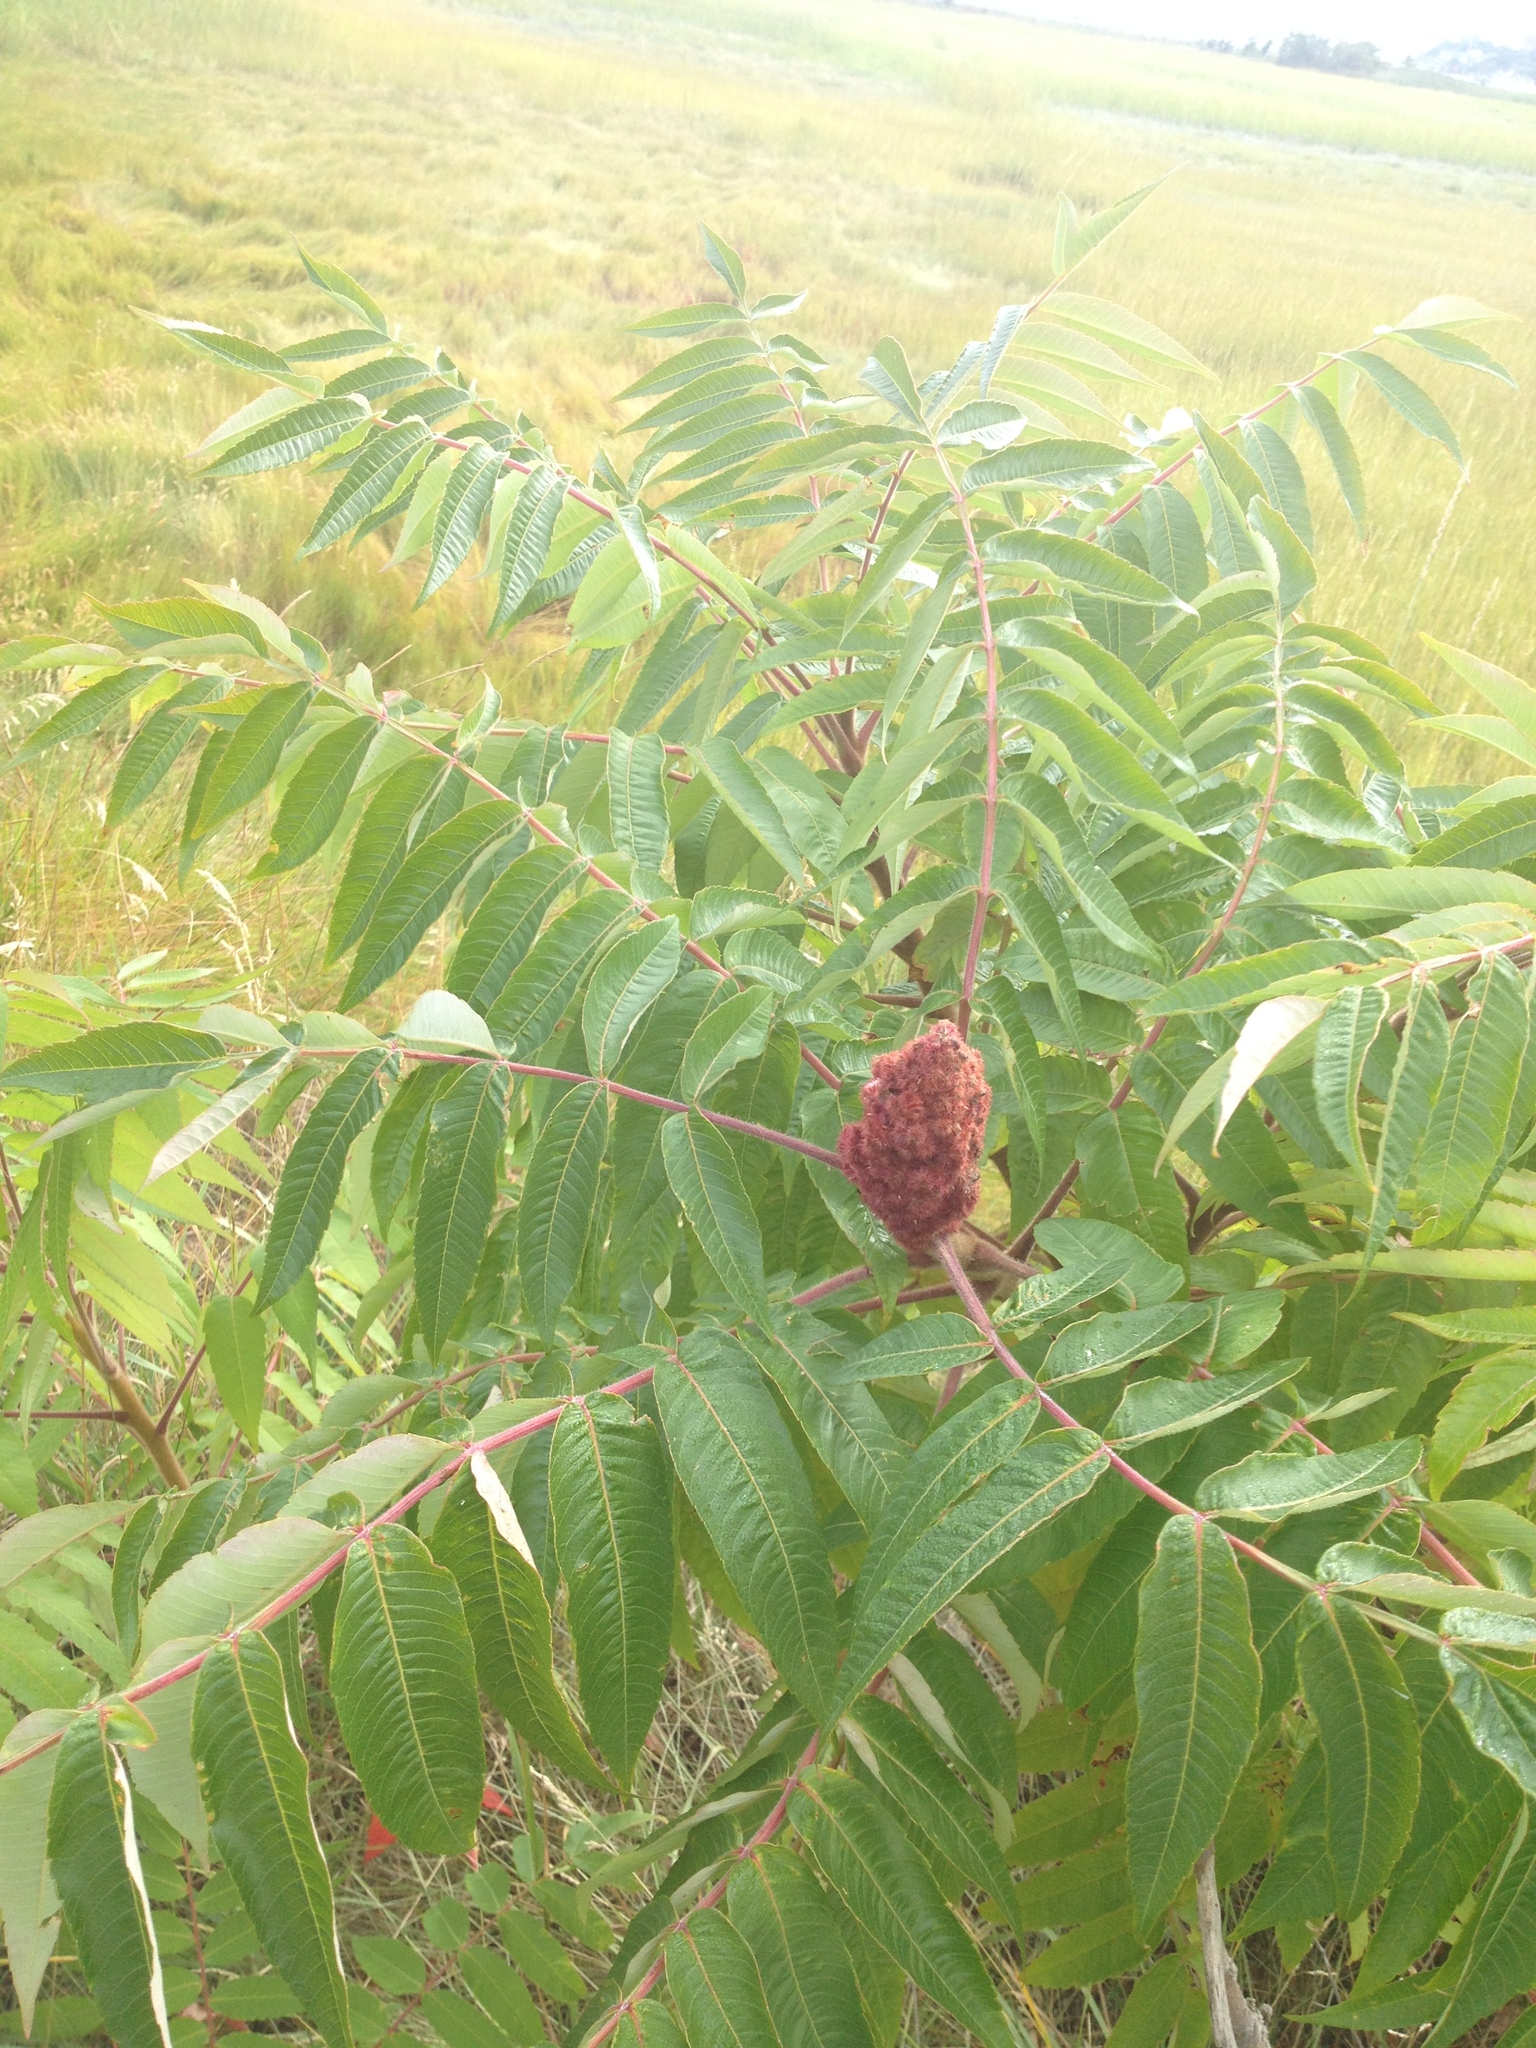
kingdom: Plantae
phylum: Tracheophyta
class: Magnoliopsida
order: Sapindales
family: Anacardiaceae
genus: Rhus
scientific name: Rhus typhina
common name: Staghorn sumac
